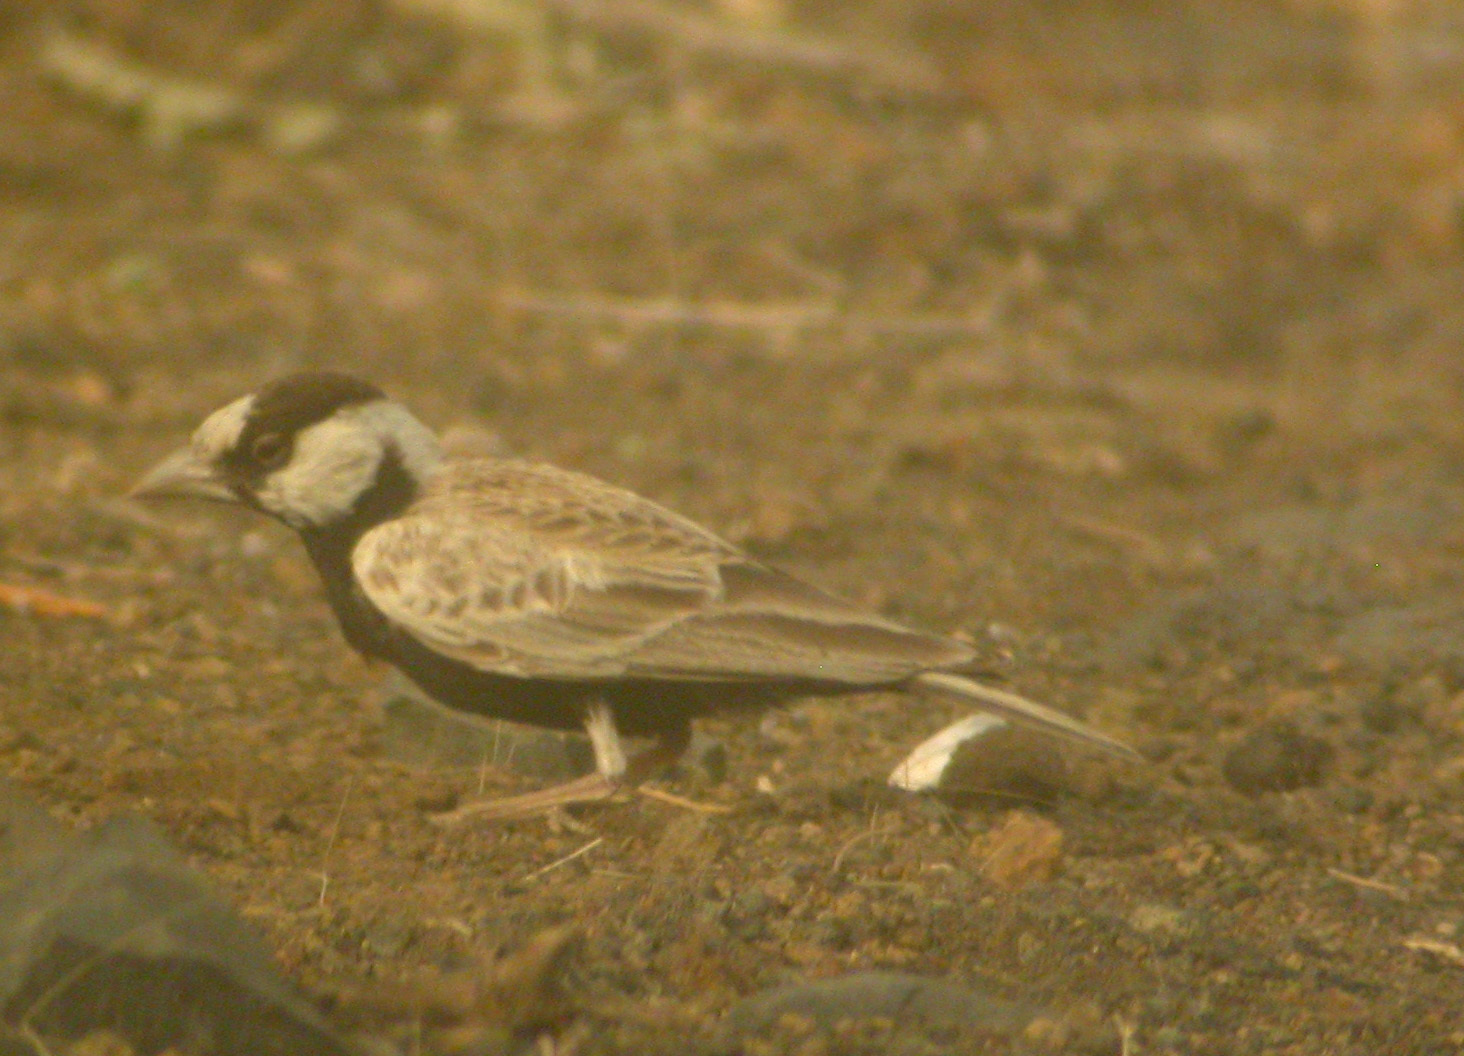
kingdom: Animalia
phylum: Chordata
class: Aves
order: Passeriformes
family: Alaudidae
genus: Eremopterix
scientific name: Eremopterix nigriceps
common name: Black-crowned sparrow-lark
